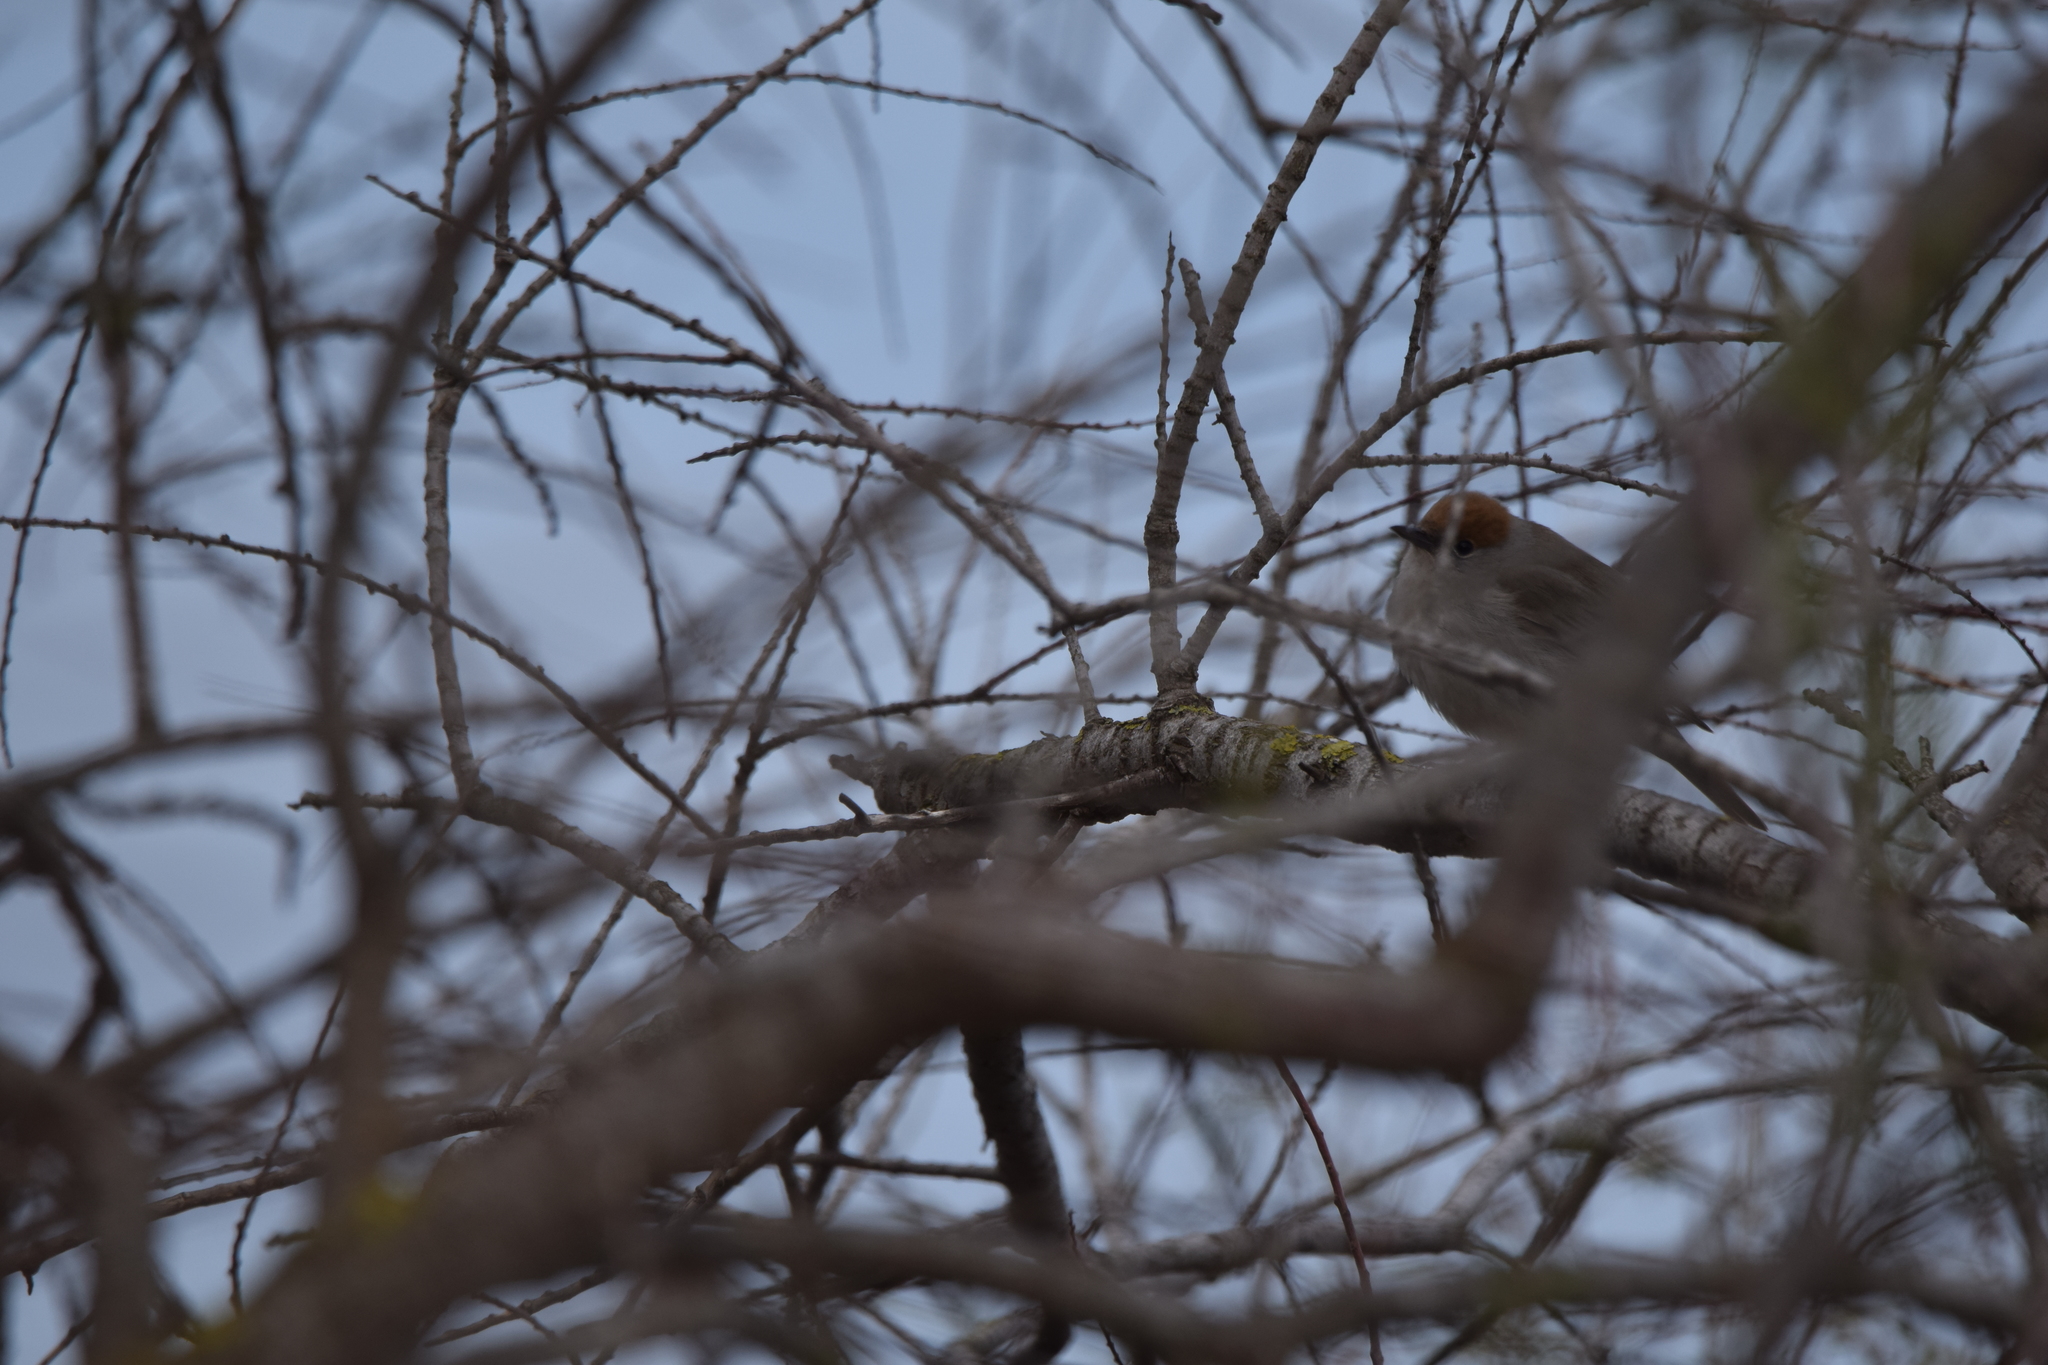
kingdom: Animalia
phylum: Chordata
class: Aves
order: Passeriformes
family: Sylviidae
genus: Sylvia
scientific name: Sylvia atricapilla
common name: Eurasian blackcap
